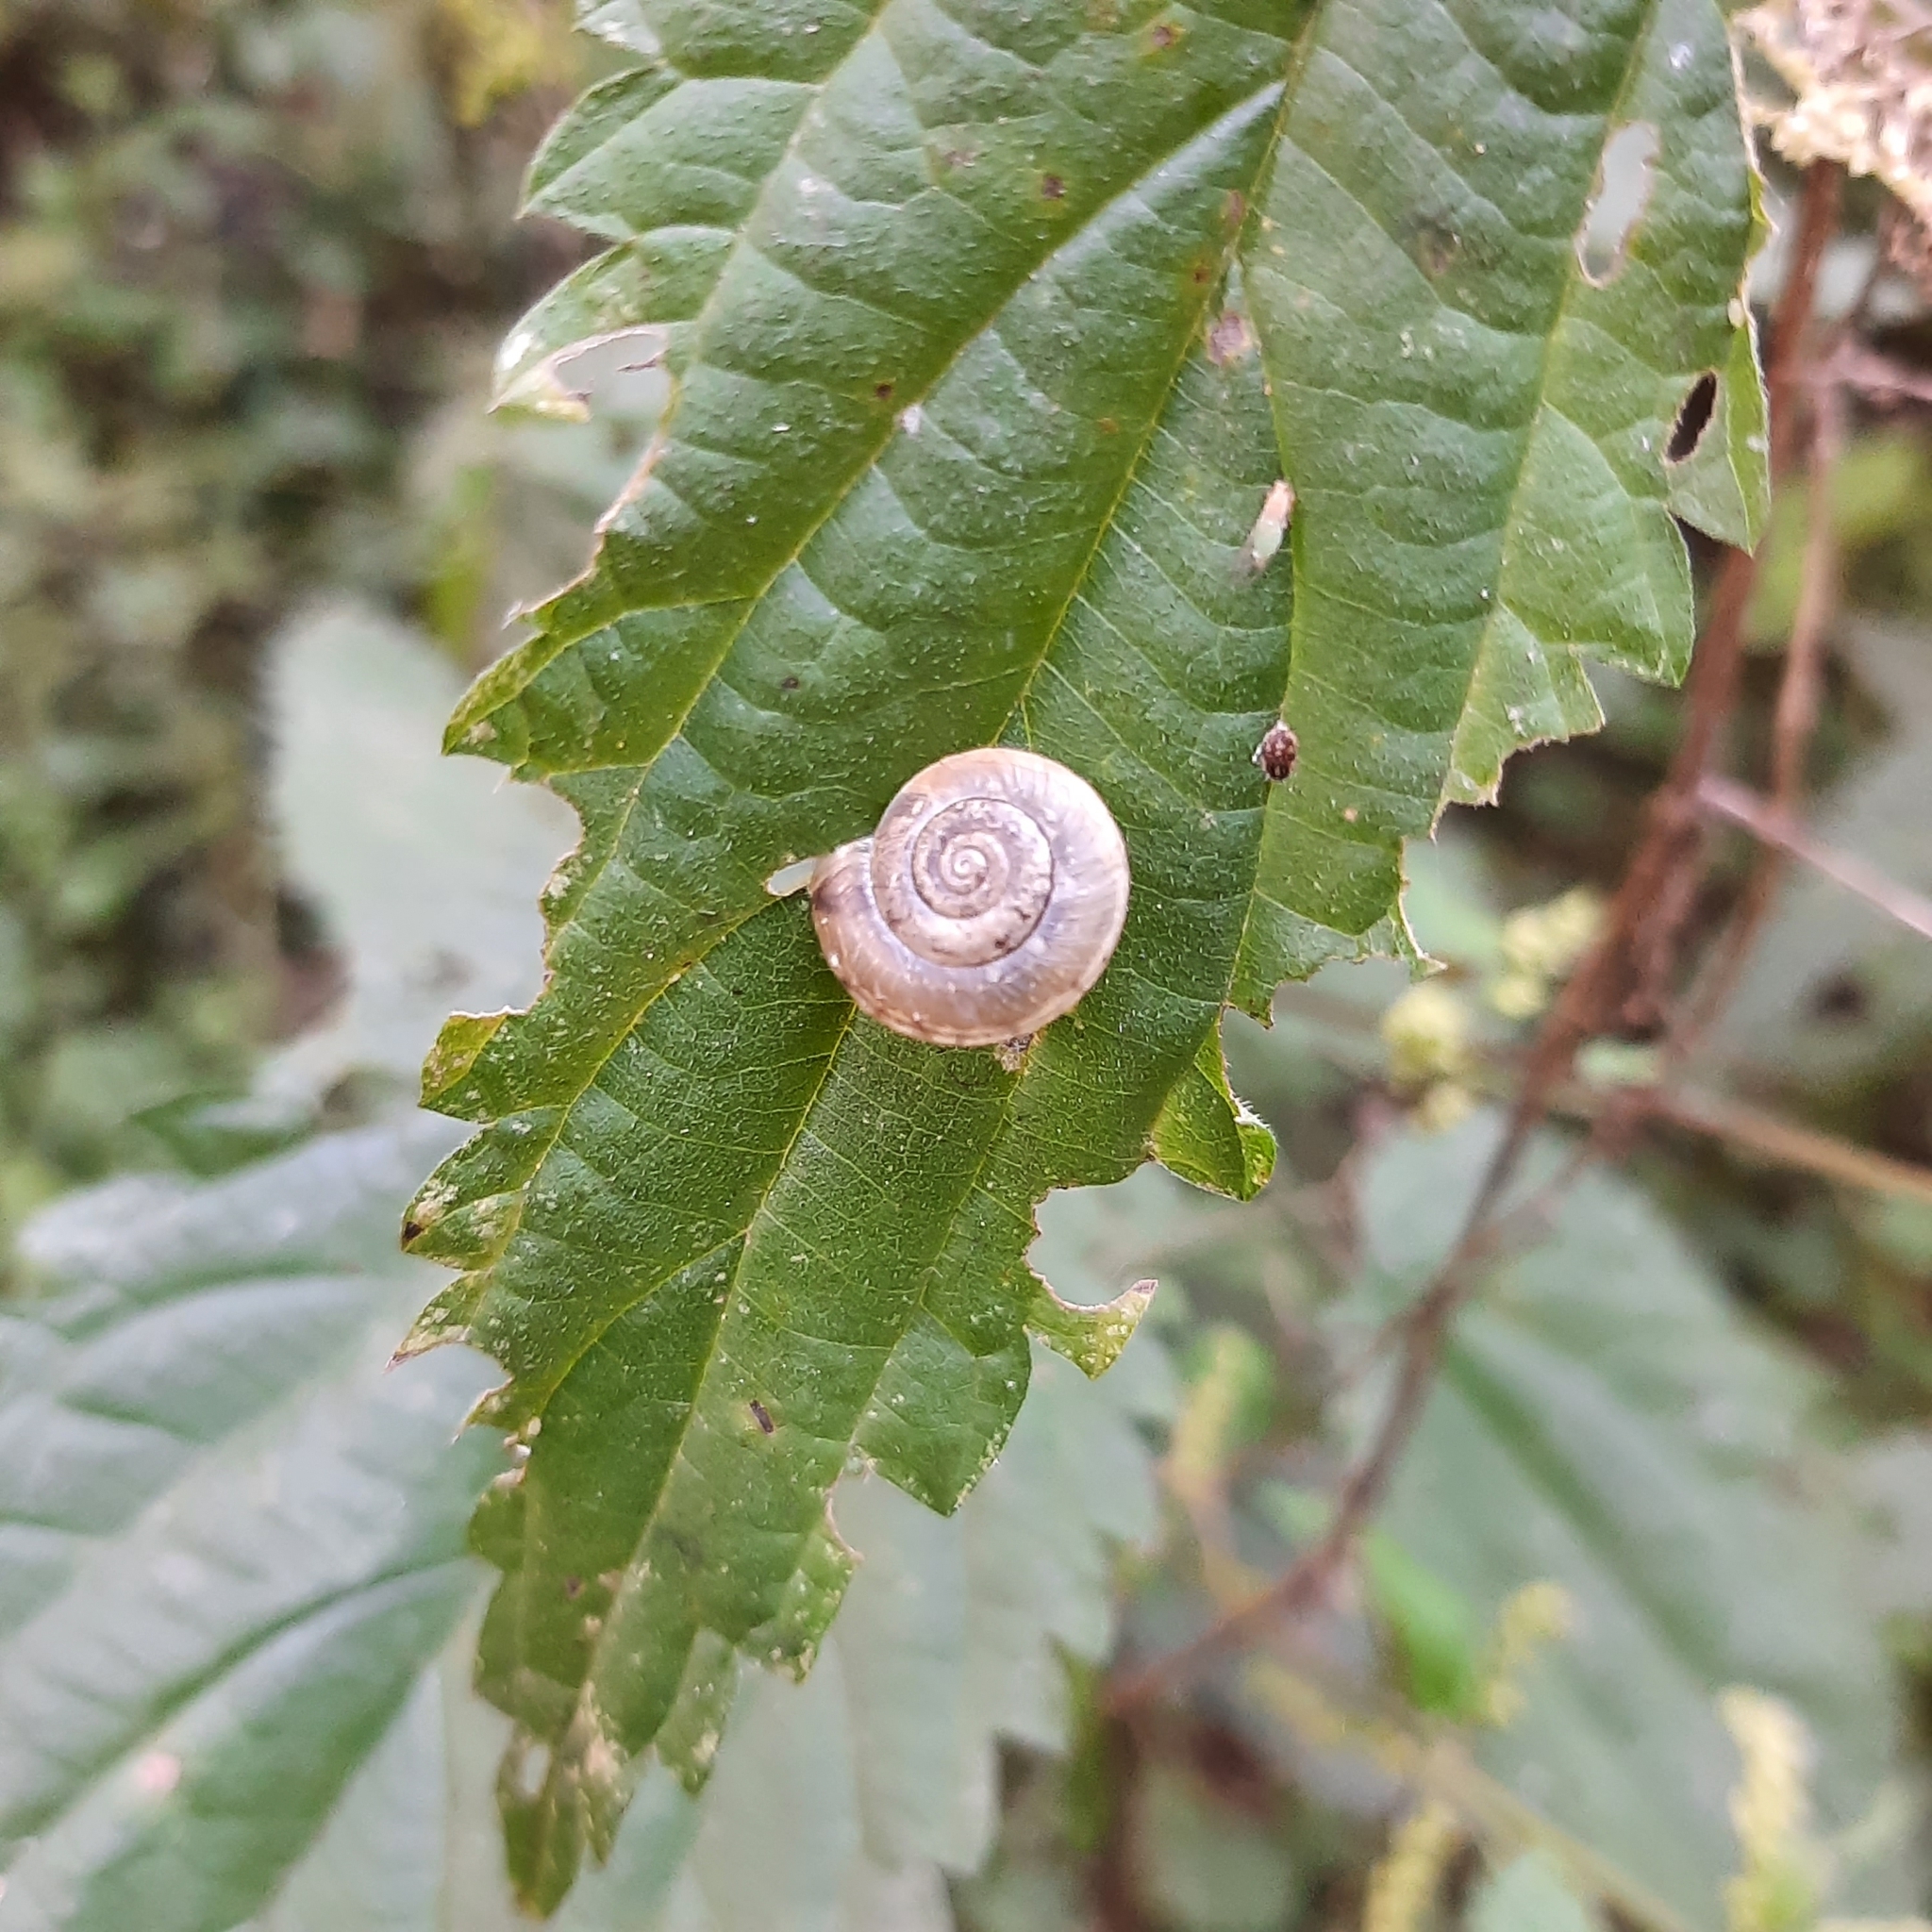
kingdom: Animalia
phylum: Mollusca
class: Gastropoda
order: Stylommatophora
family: Hygromiidae
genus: Urticicola
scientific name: Urticicola umbrosus
